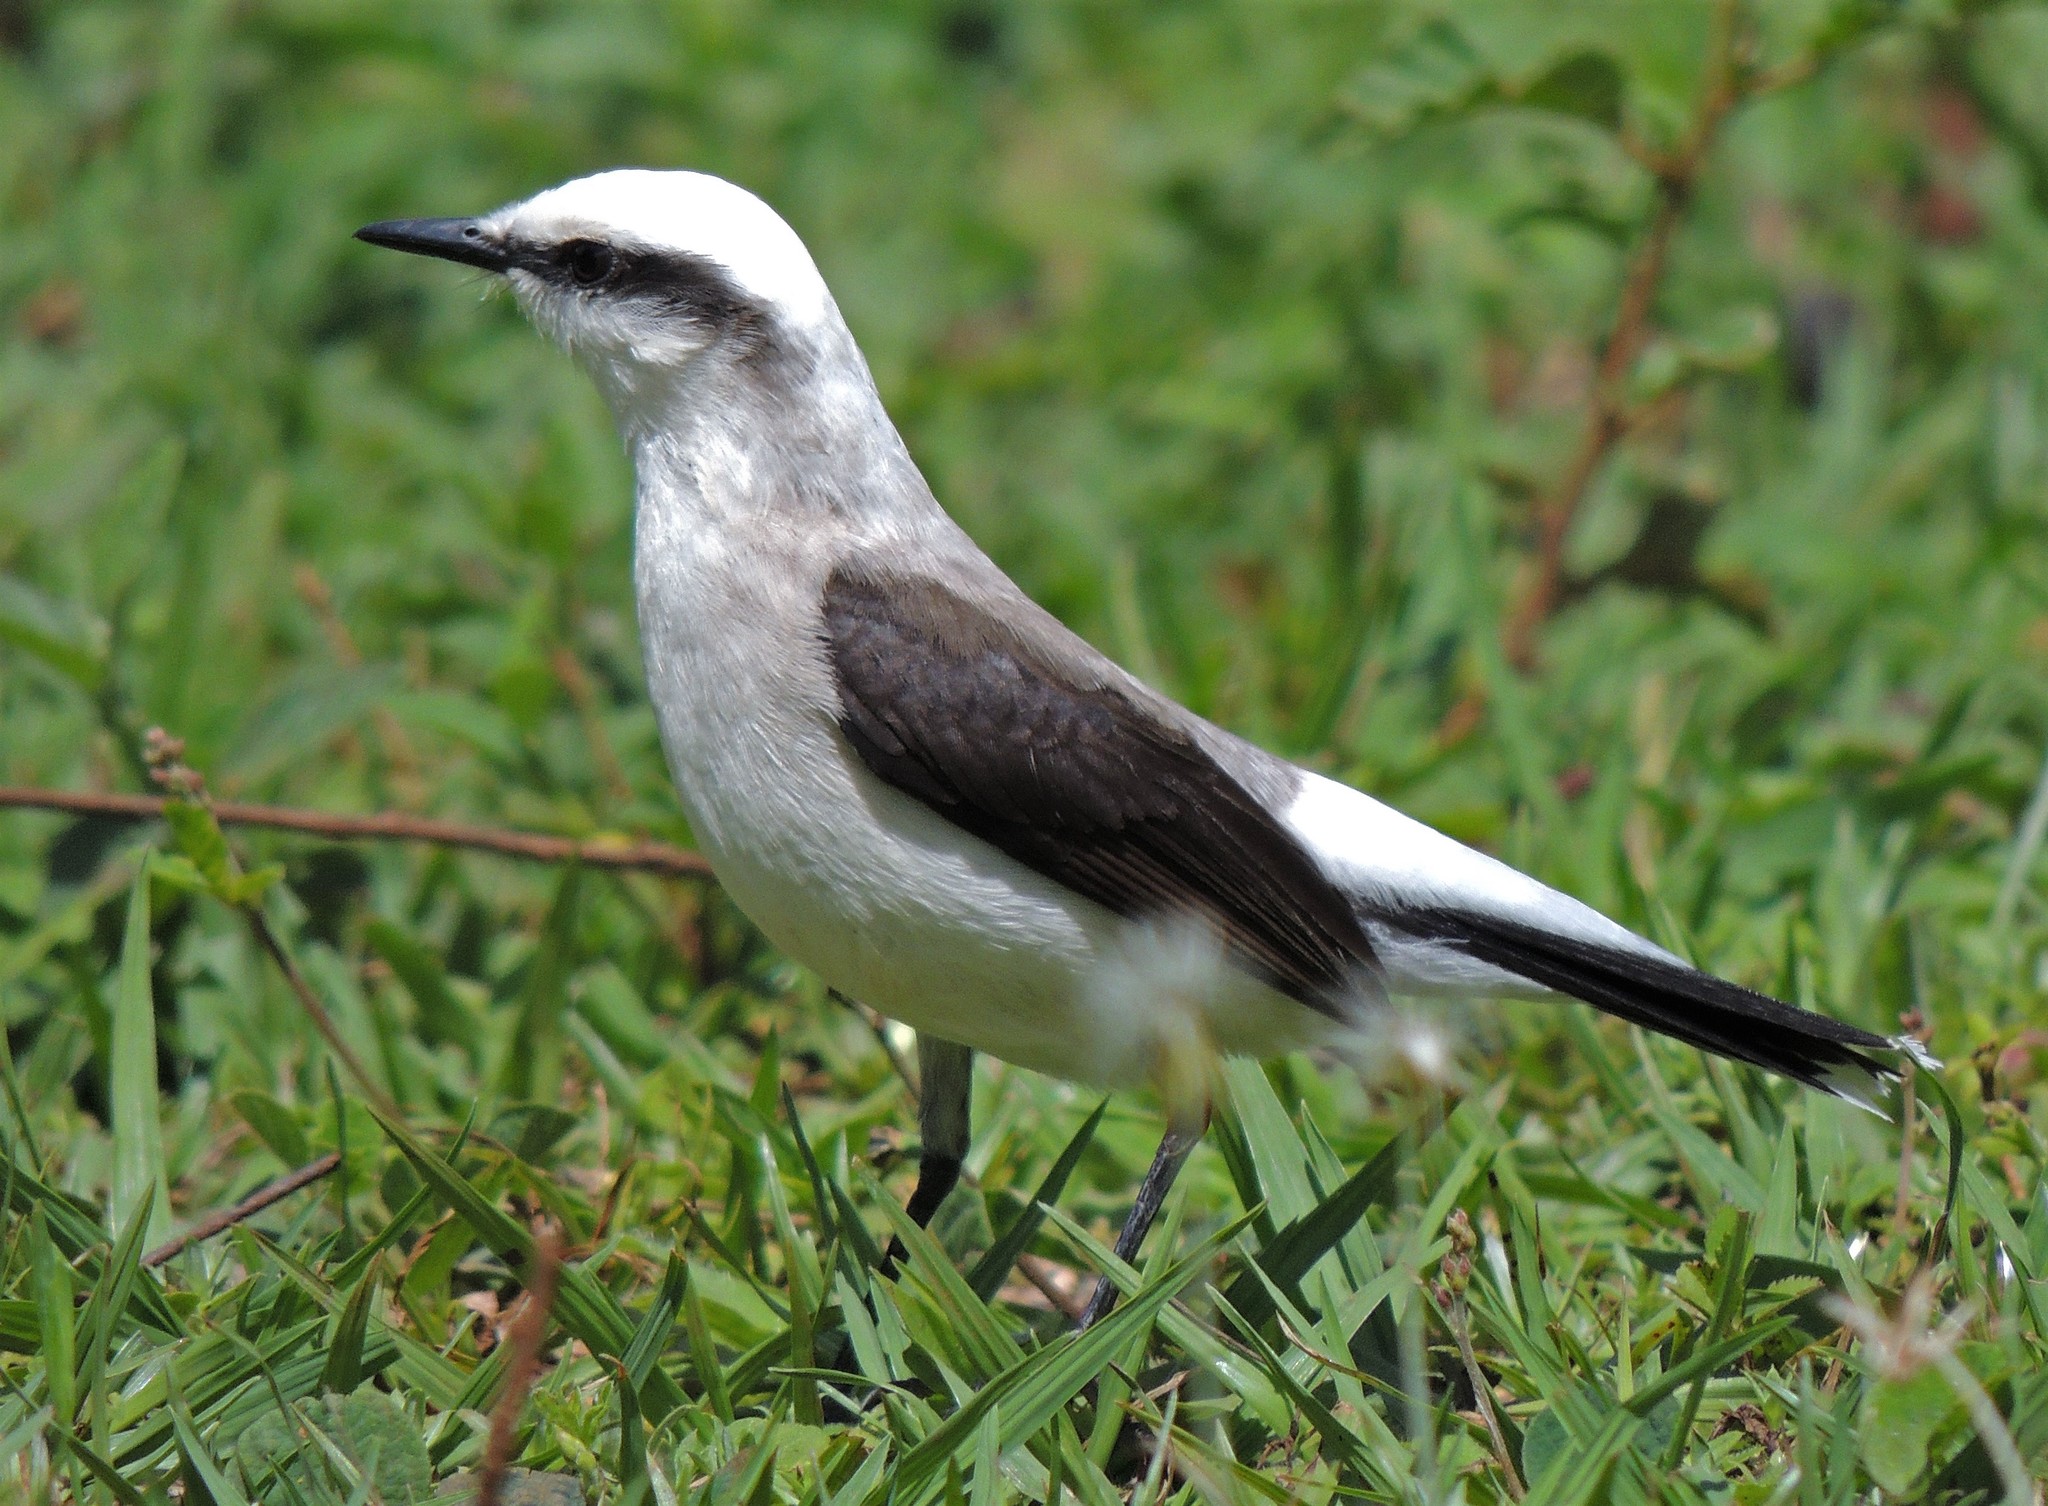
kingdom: Animalia
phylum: Chordata
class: Aves
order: Passeriformes
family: Tyrannidae
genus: Fluvicola
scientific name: Fluvicola nengeta
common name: Masked water tyrant
